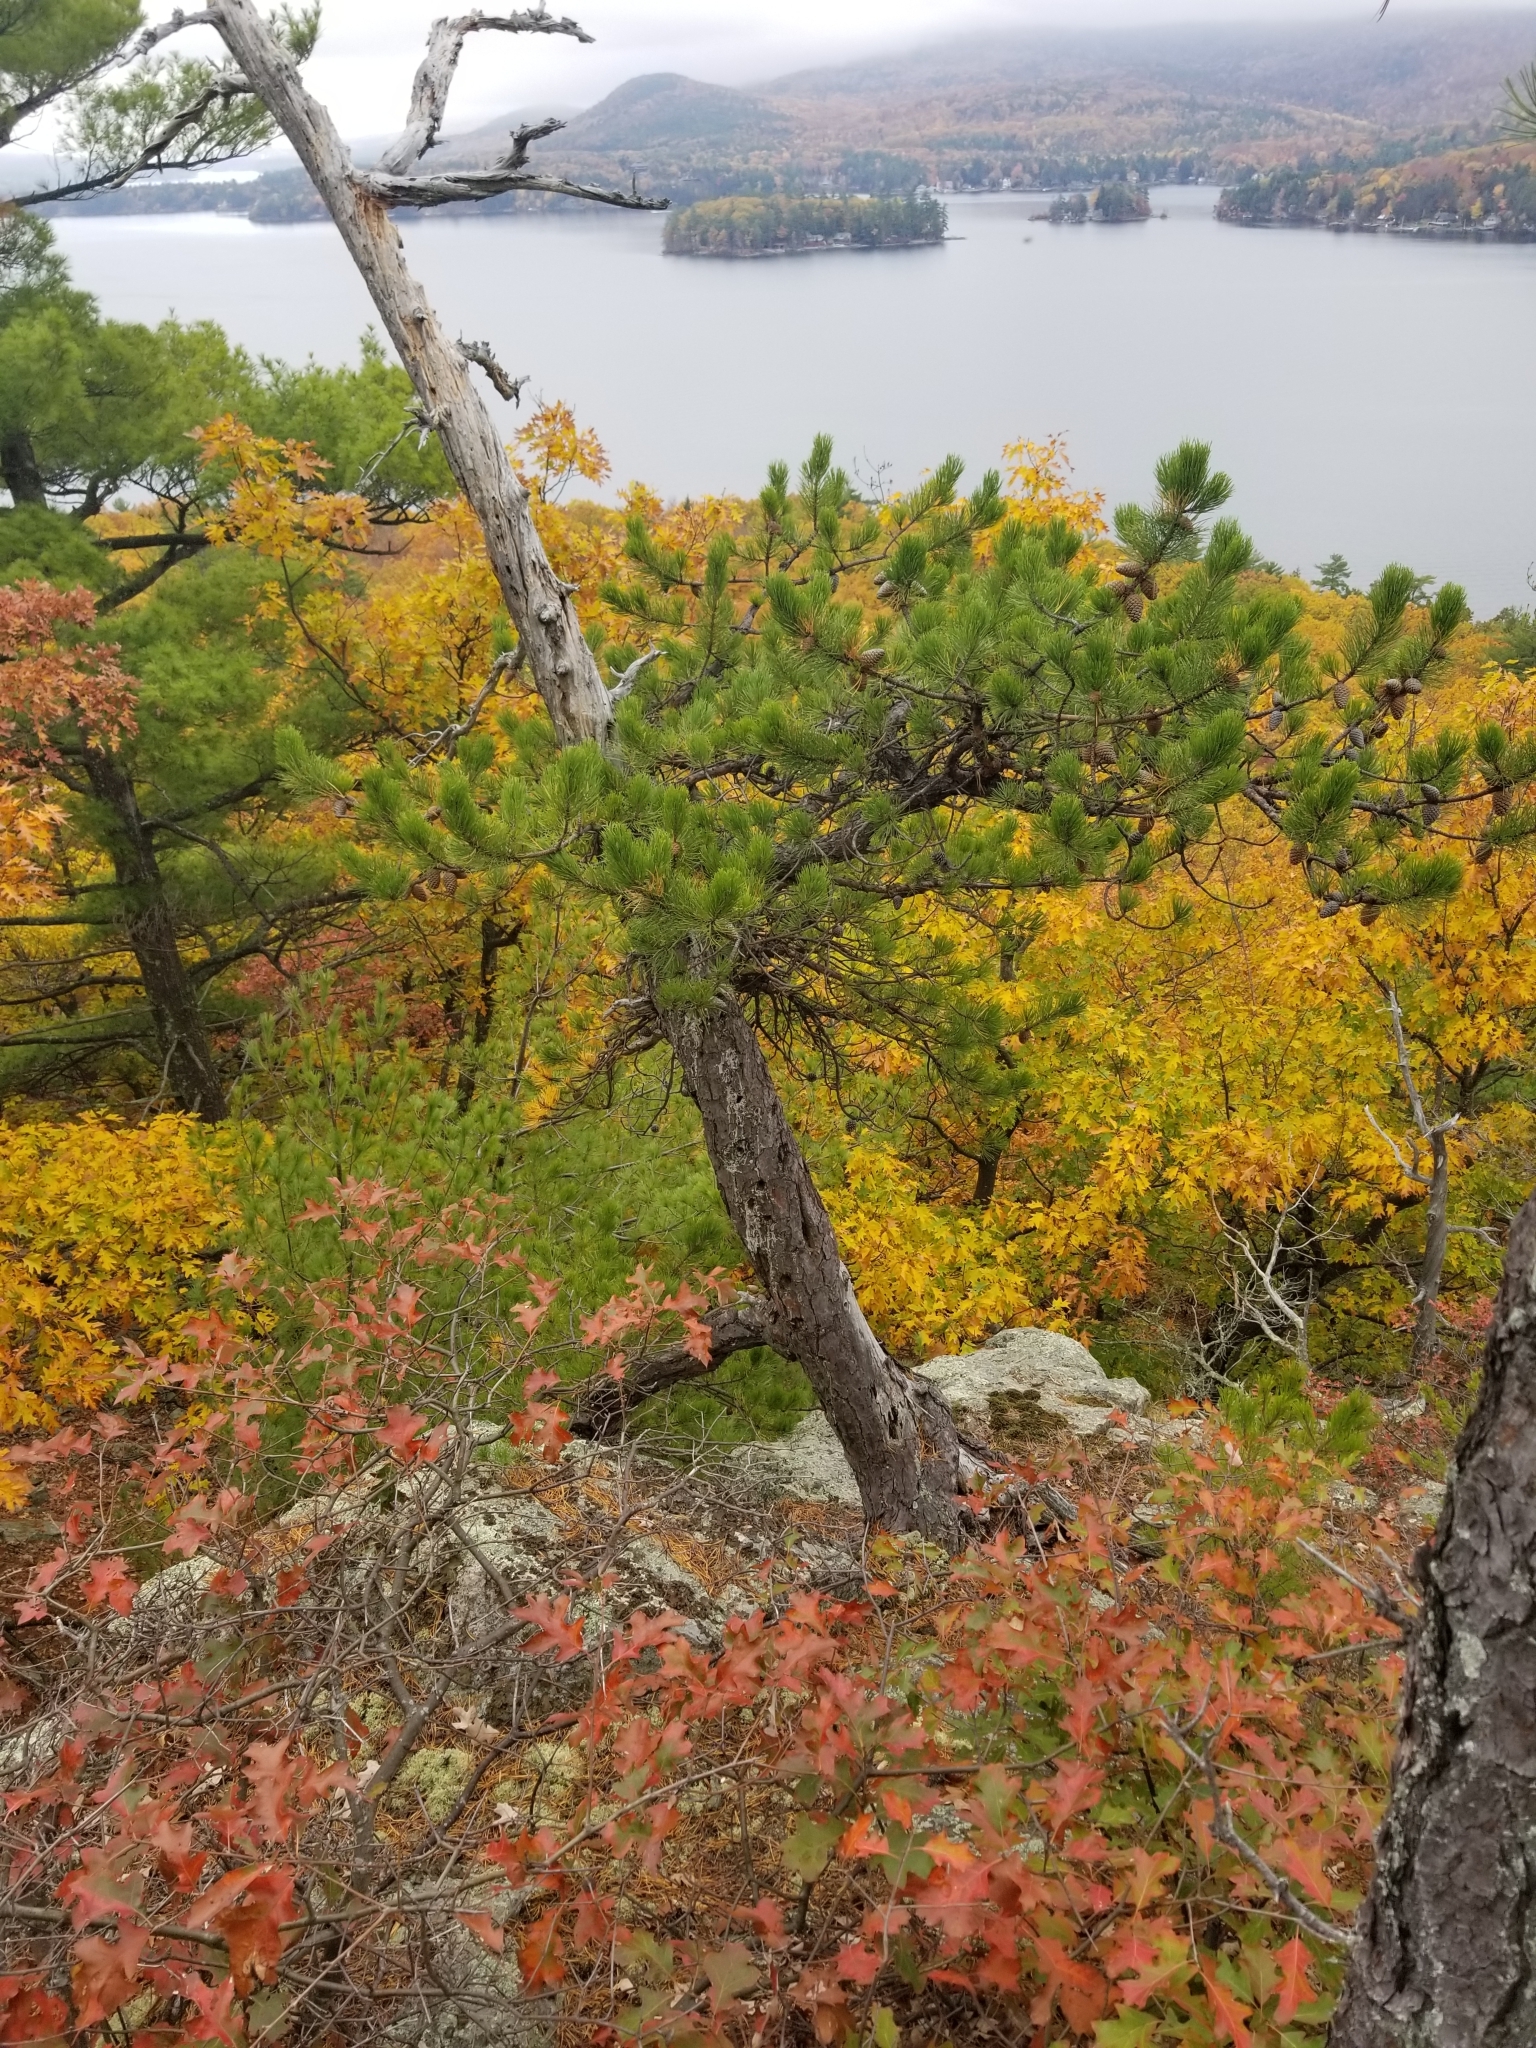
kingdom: Plantae
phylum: Tracheophyta
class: Pinopsida
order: Pinales
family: Pinaceae
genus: Pinus
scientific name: Pinus rigida
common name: Pitch pine
